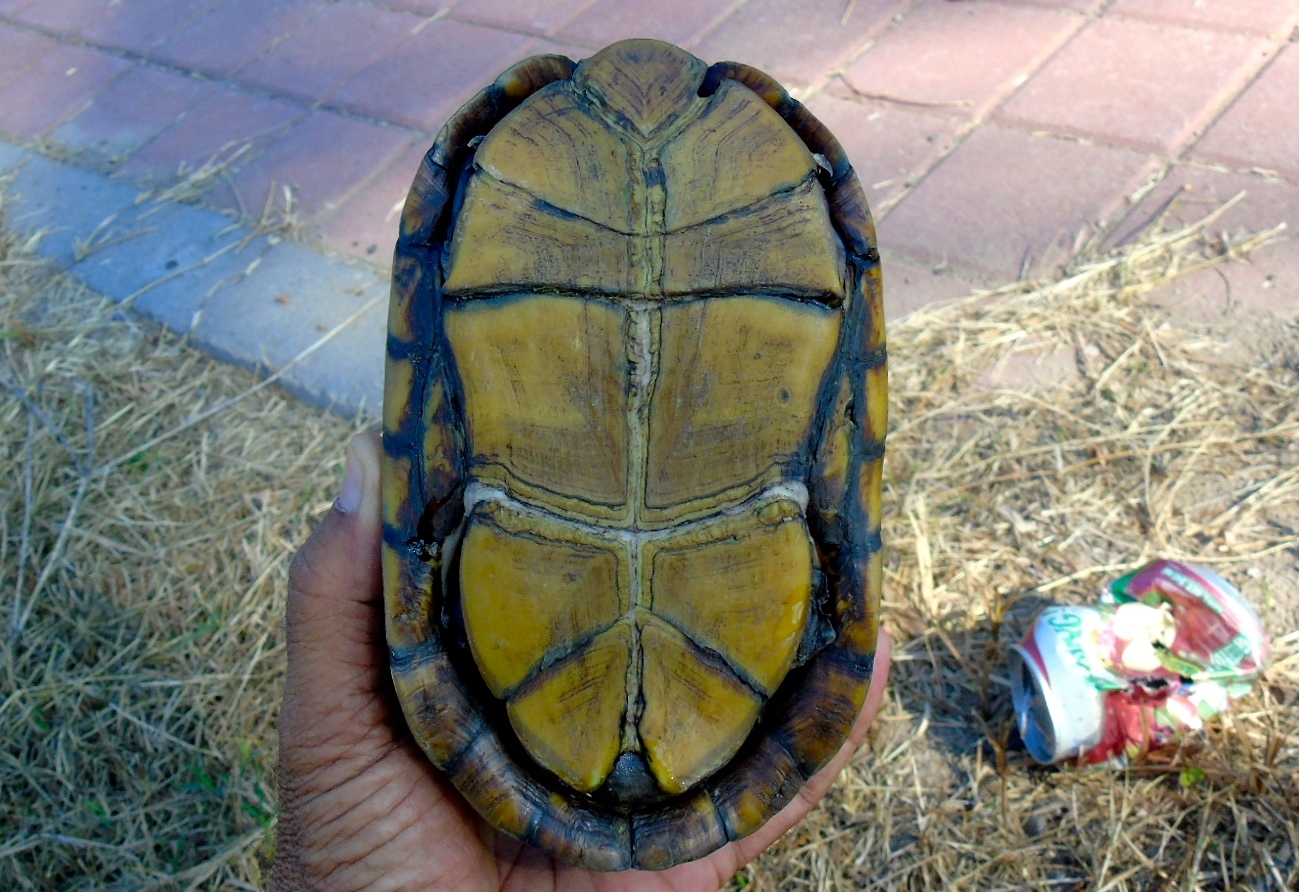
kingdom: Animalia
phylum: Chordata
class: Testudines
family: Kinosternidae
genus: Kinosternon
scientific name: Kinosternon integrum
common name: Mexican mud turtle
